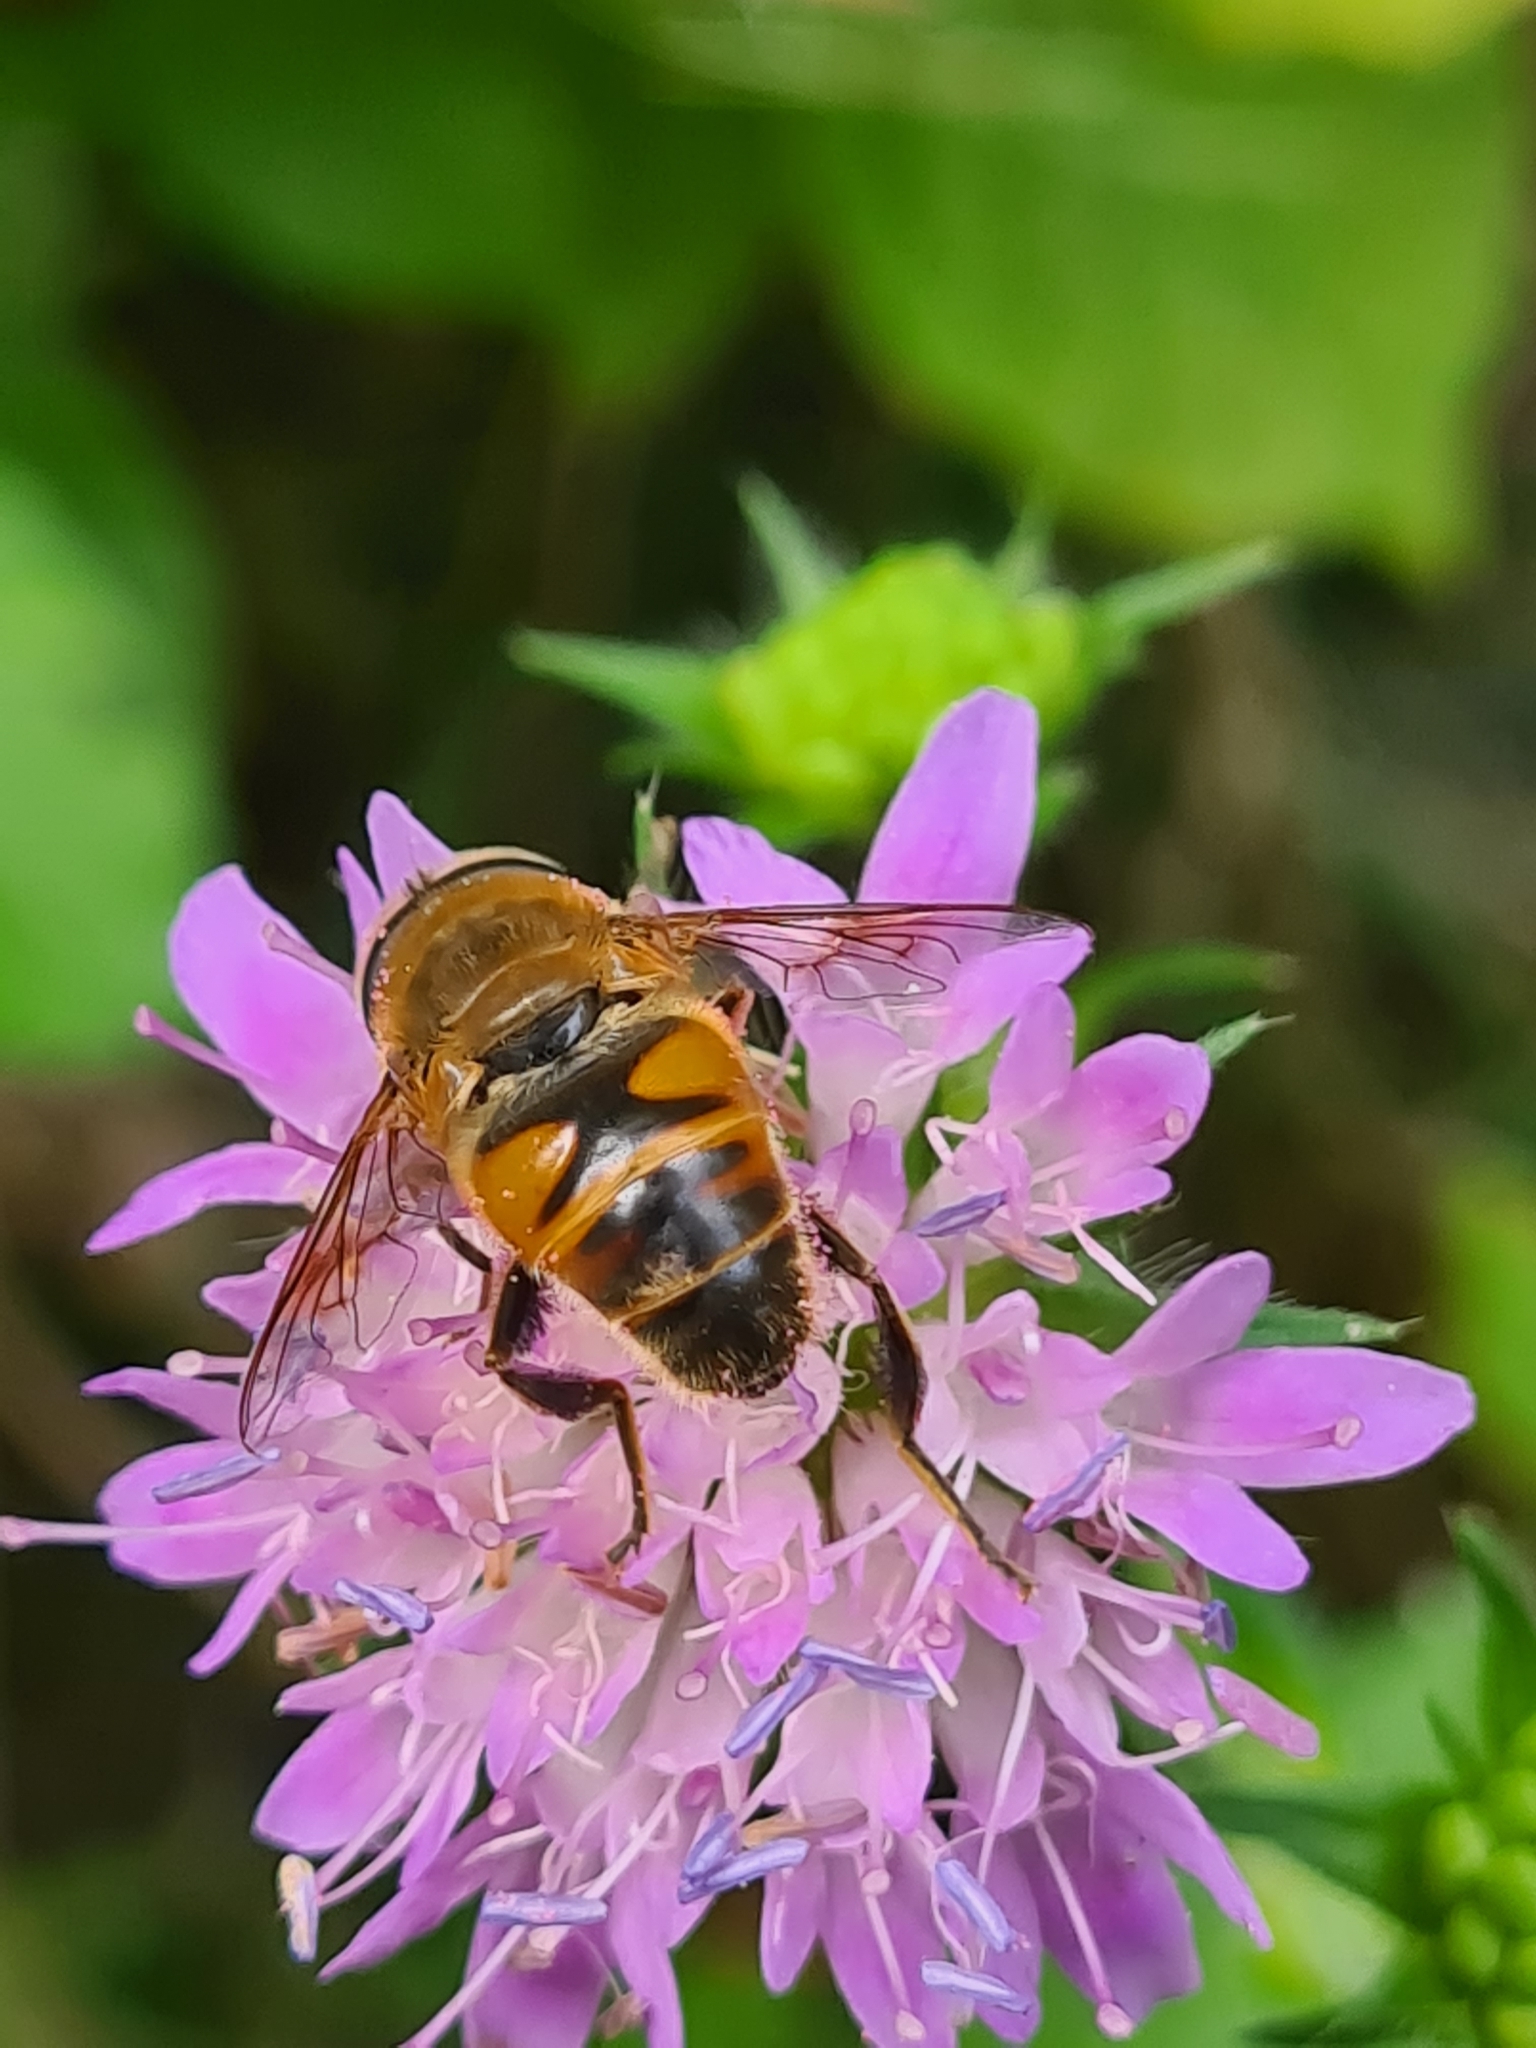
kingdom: Animalia
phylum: Arthropoda
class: Insecta
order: Diptera
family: Syrphidae
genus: Eristalis
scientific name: Eristalis tenax
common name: Drone fly
